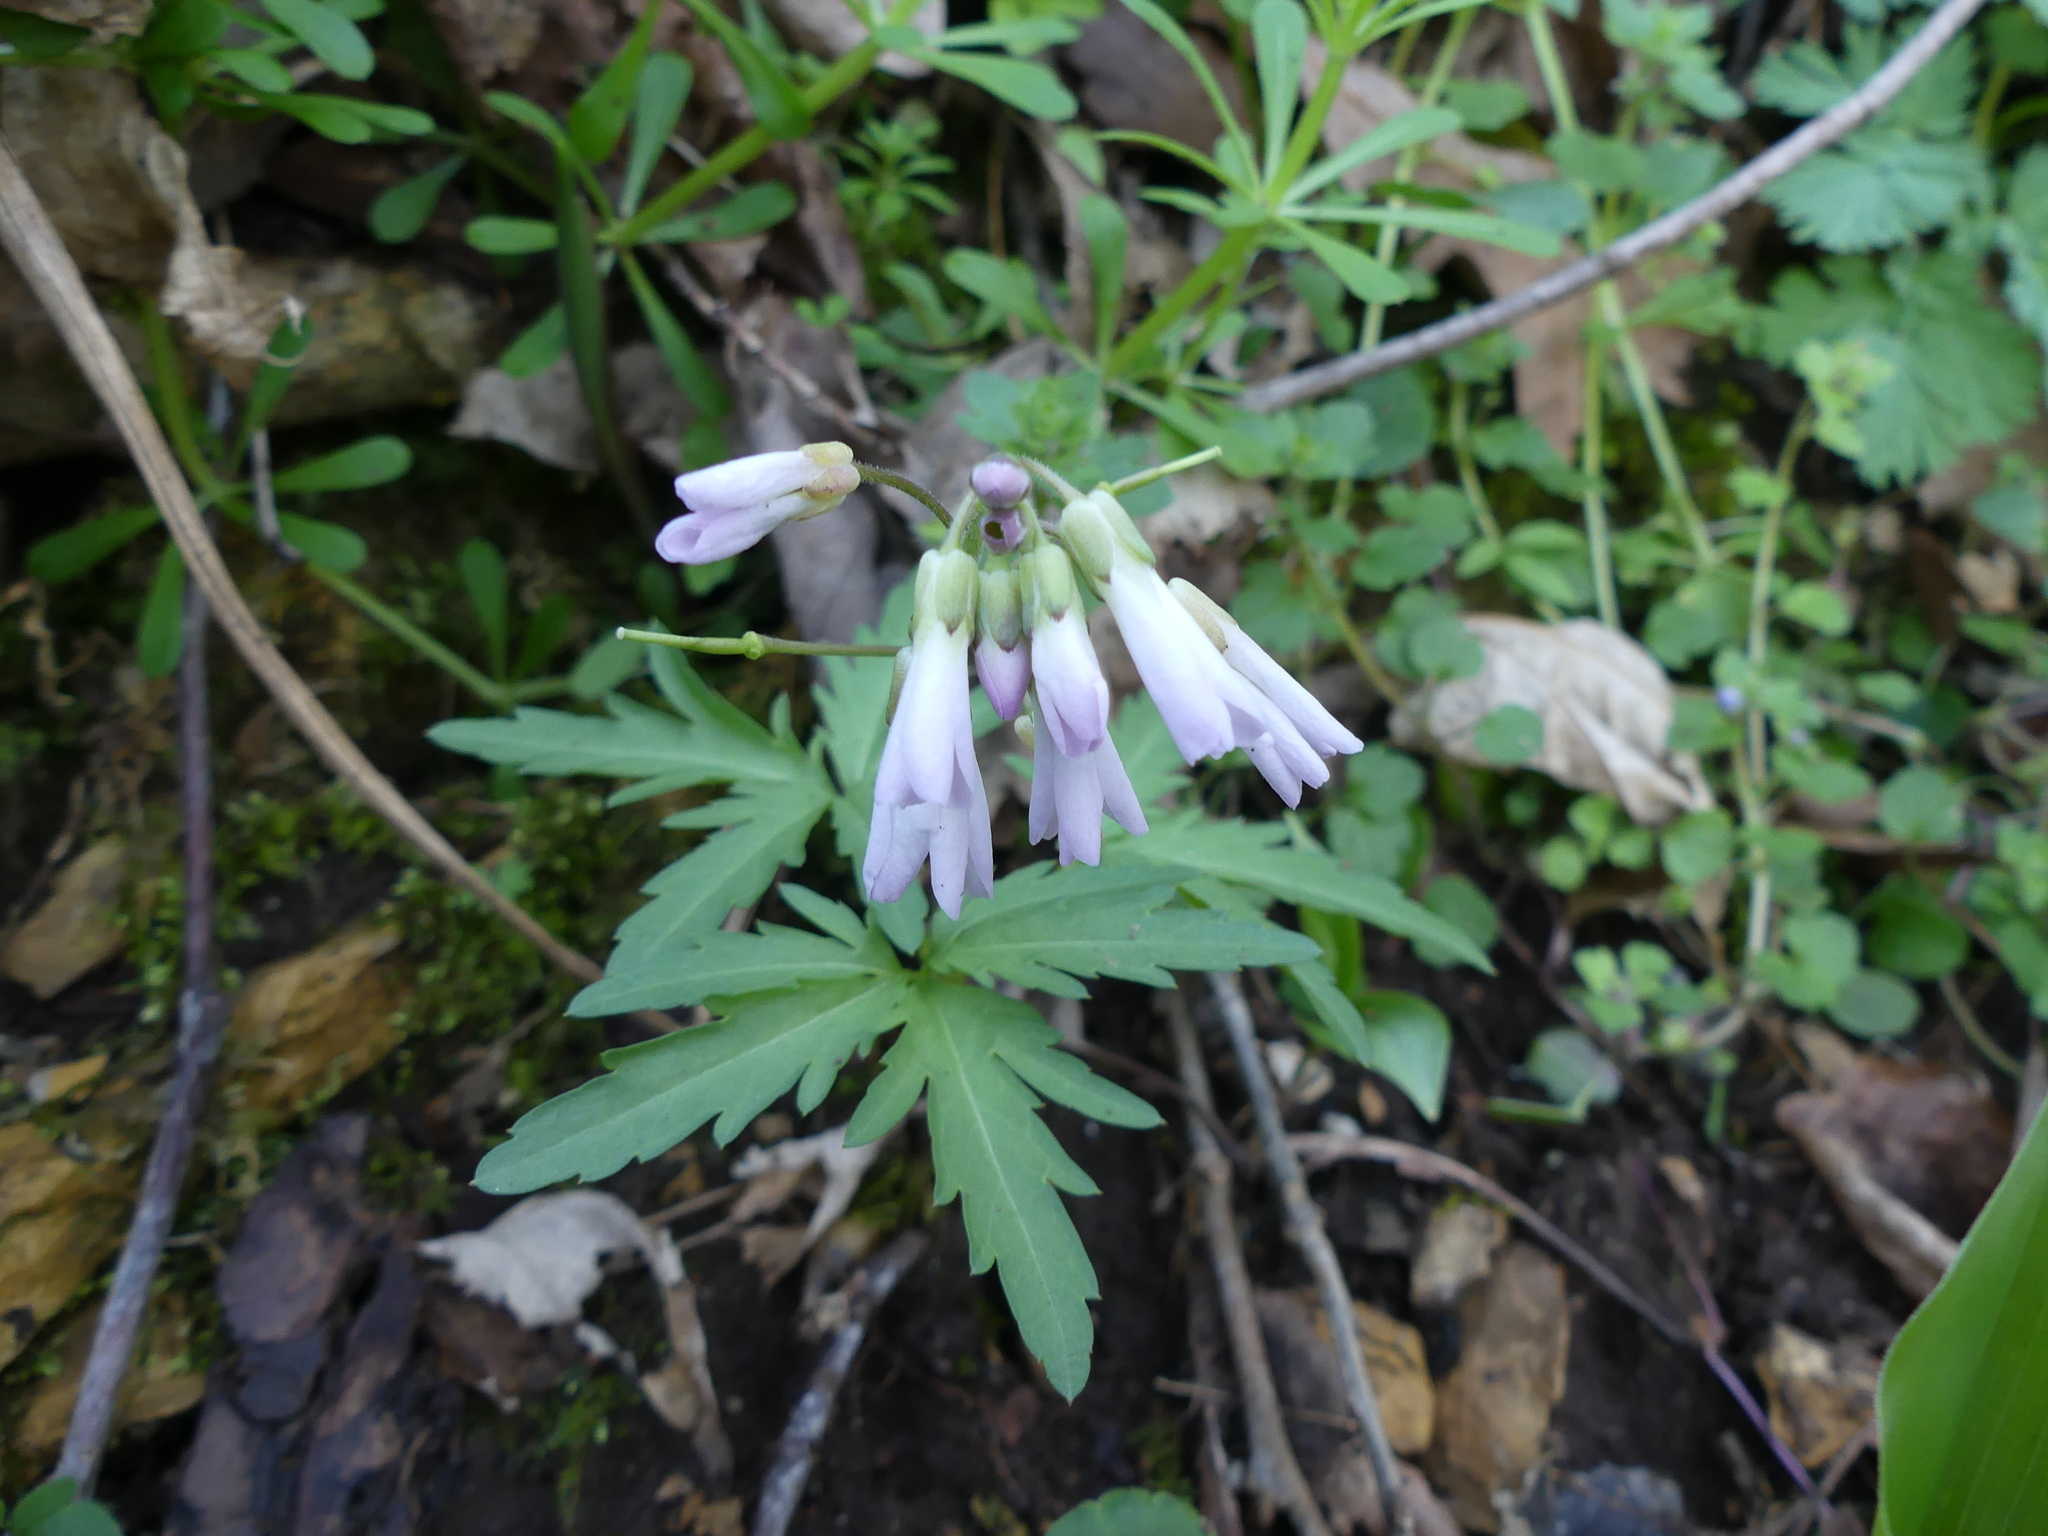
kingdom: Plantae
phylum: Tracheophyta
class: Magnoliopsida
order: Brassicales
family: Brassicaceae
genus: Cardamine
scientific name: Cardamine concatenata
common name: Cut-leaf toothcup
